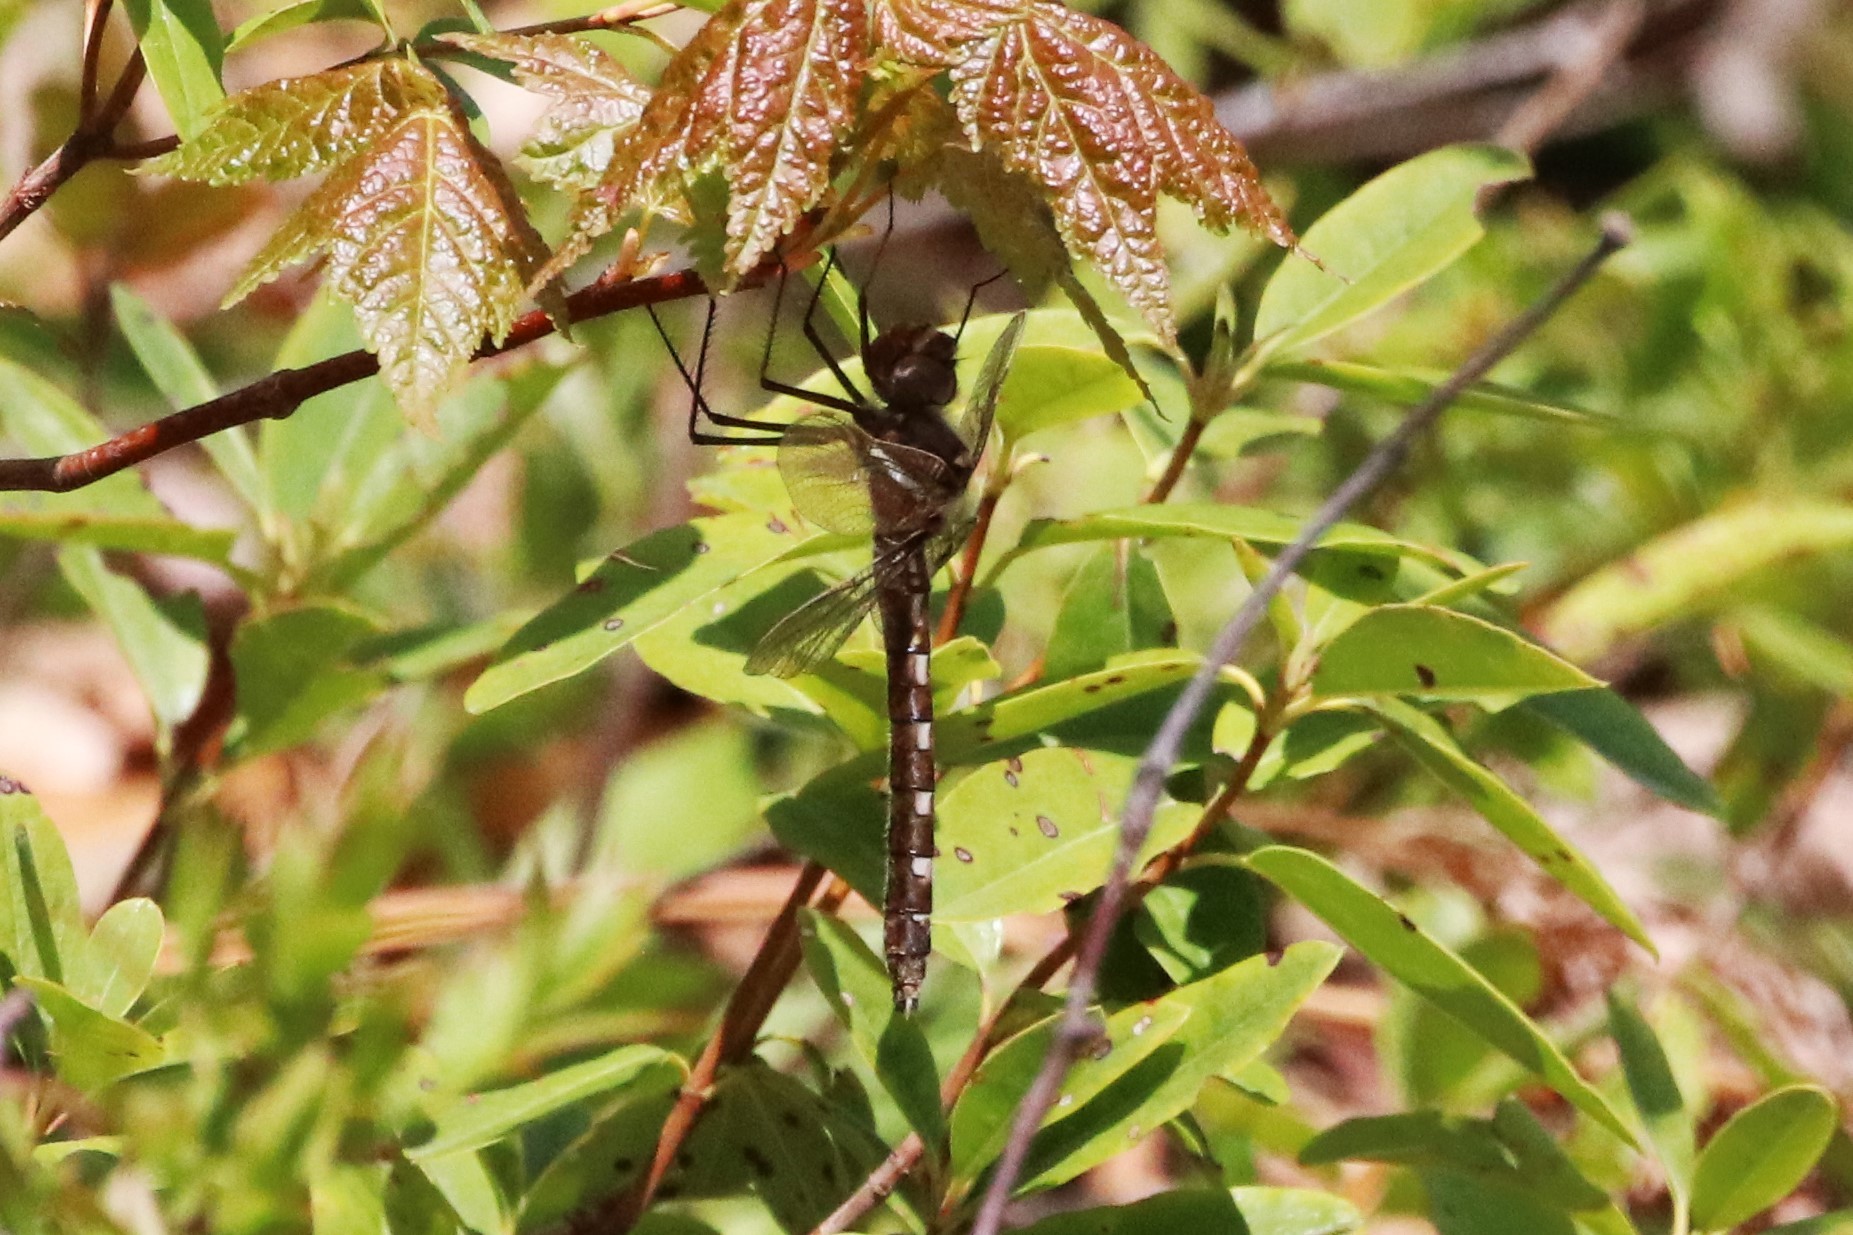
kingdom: Animalia
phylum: Arthropoda
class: Insecta
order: Odonata
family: Macromiidae
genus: Didymops
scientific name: Didymops transversa
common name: Stream cruiser
